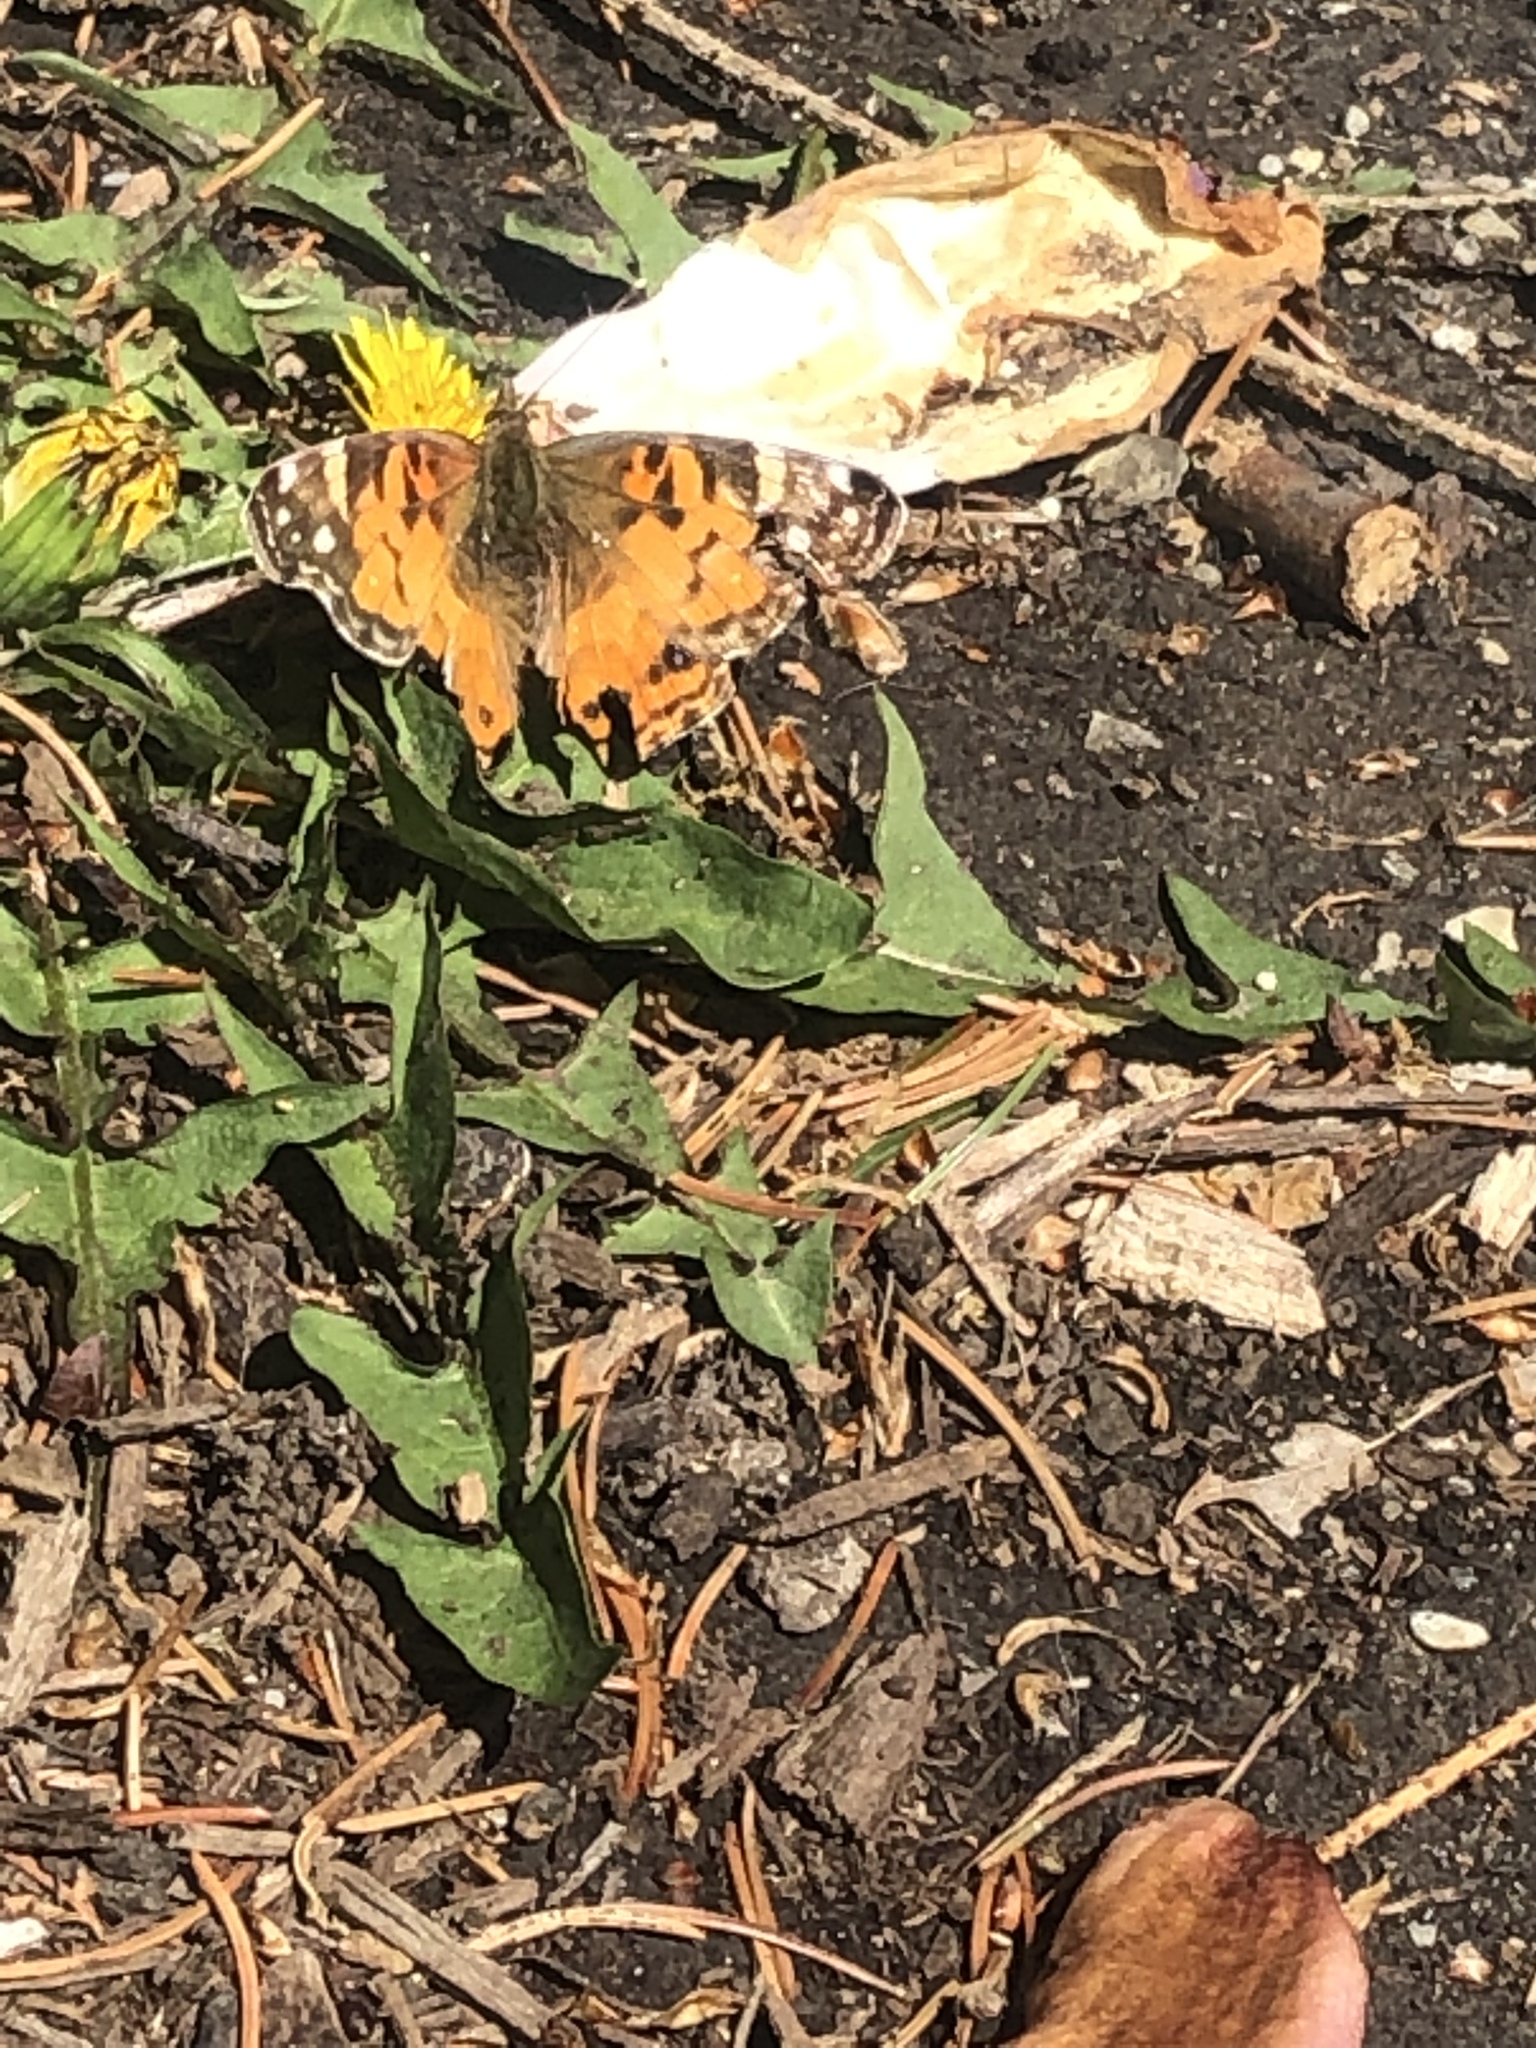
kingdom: Animalia
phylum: Arthropoda
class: Insecta
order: Lepidoptera
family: Nymphalidae
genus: Vanessa
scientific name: Vanessa virginiensis
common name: American lady
